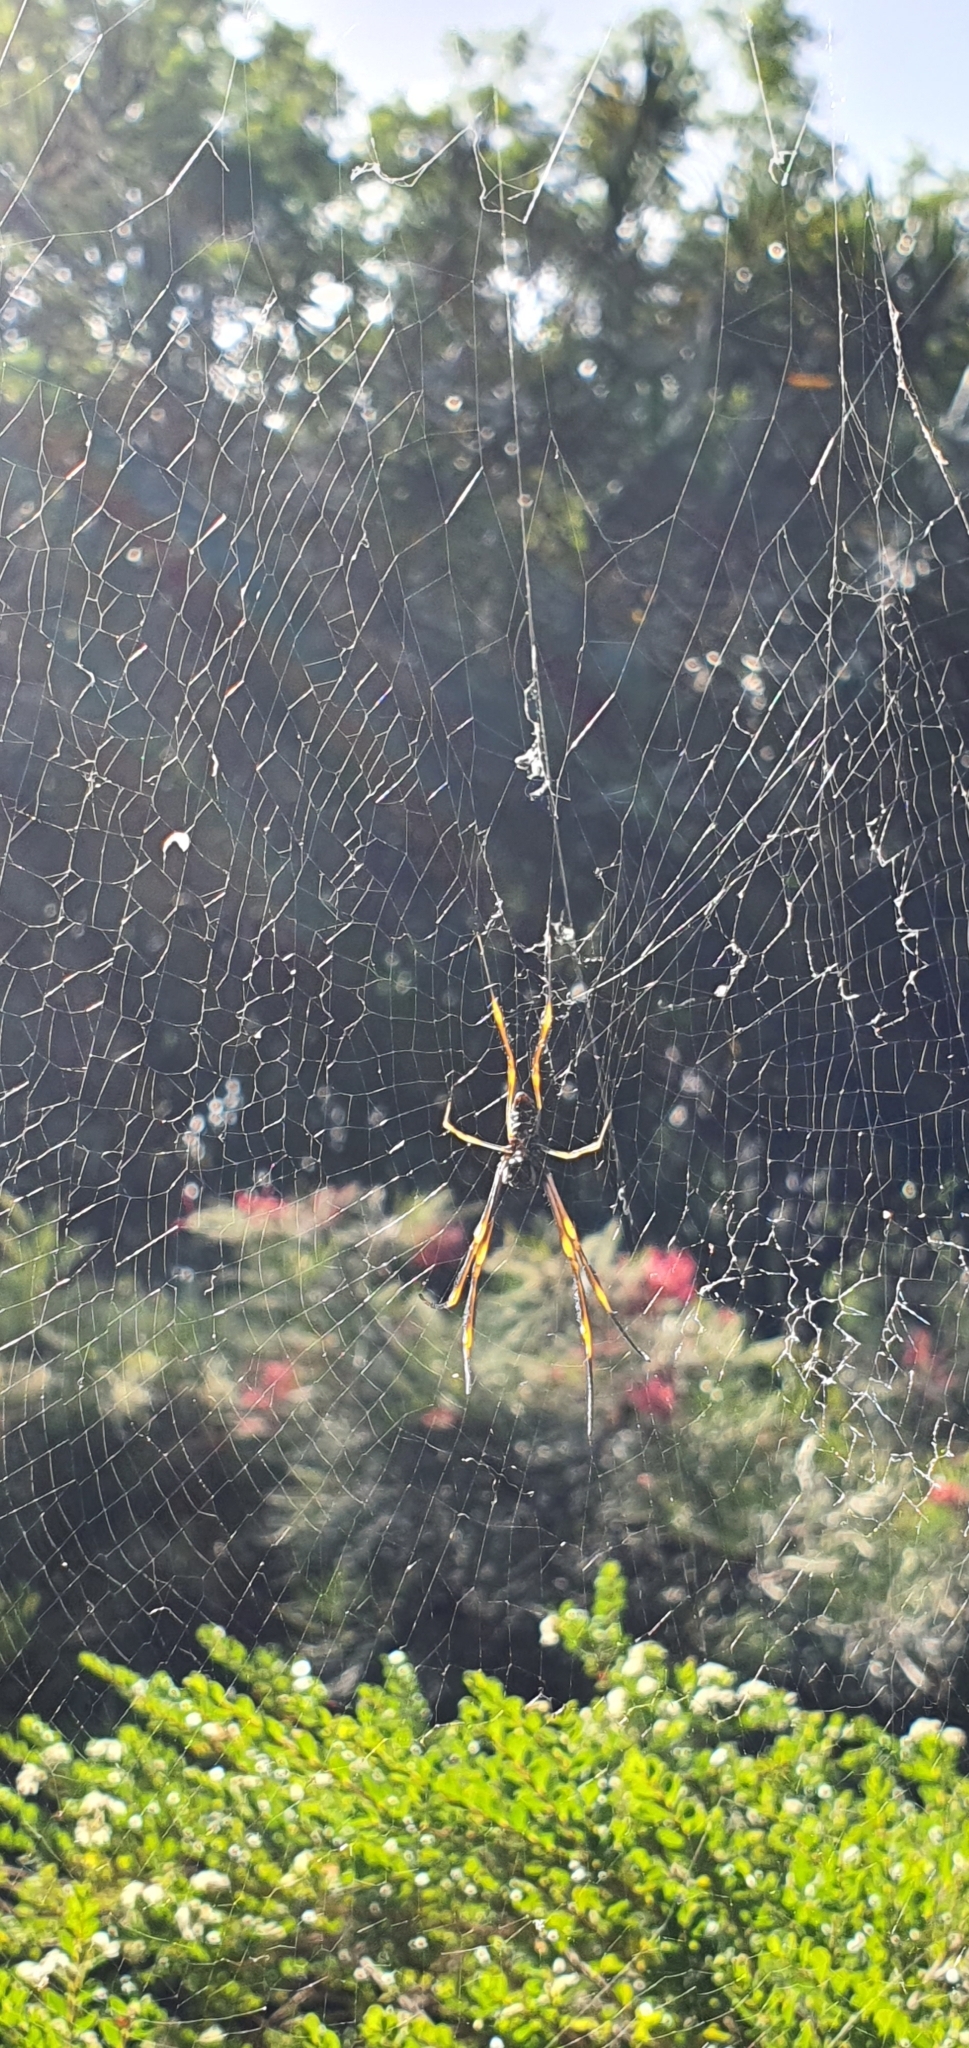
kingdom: Animalia
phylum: Arthropoda
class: Arachnida
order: Araneae
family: Araneidae
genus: Trichonephila
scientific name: Trichonephila plumipes
